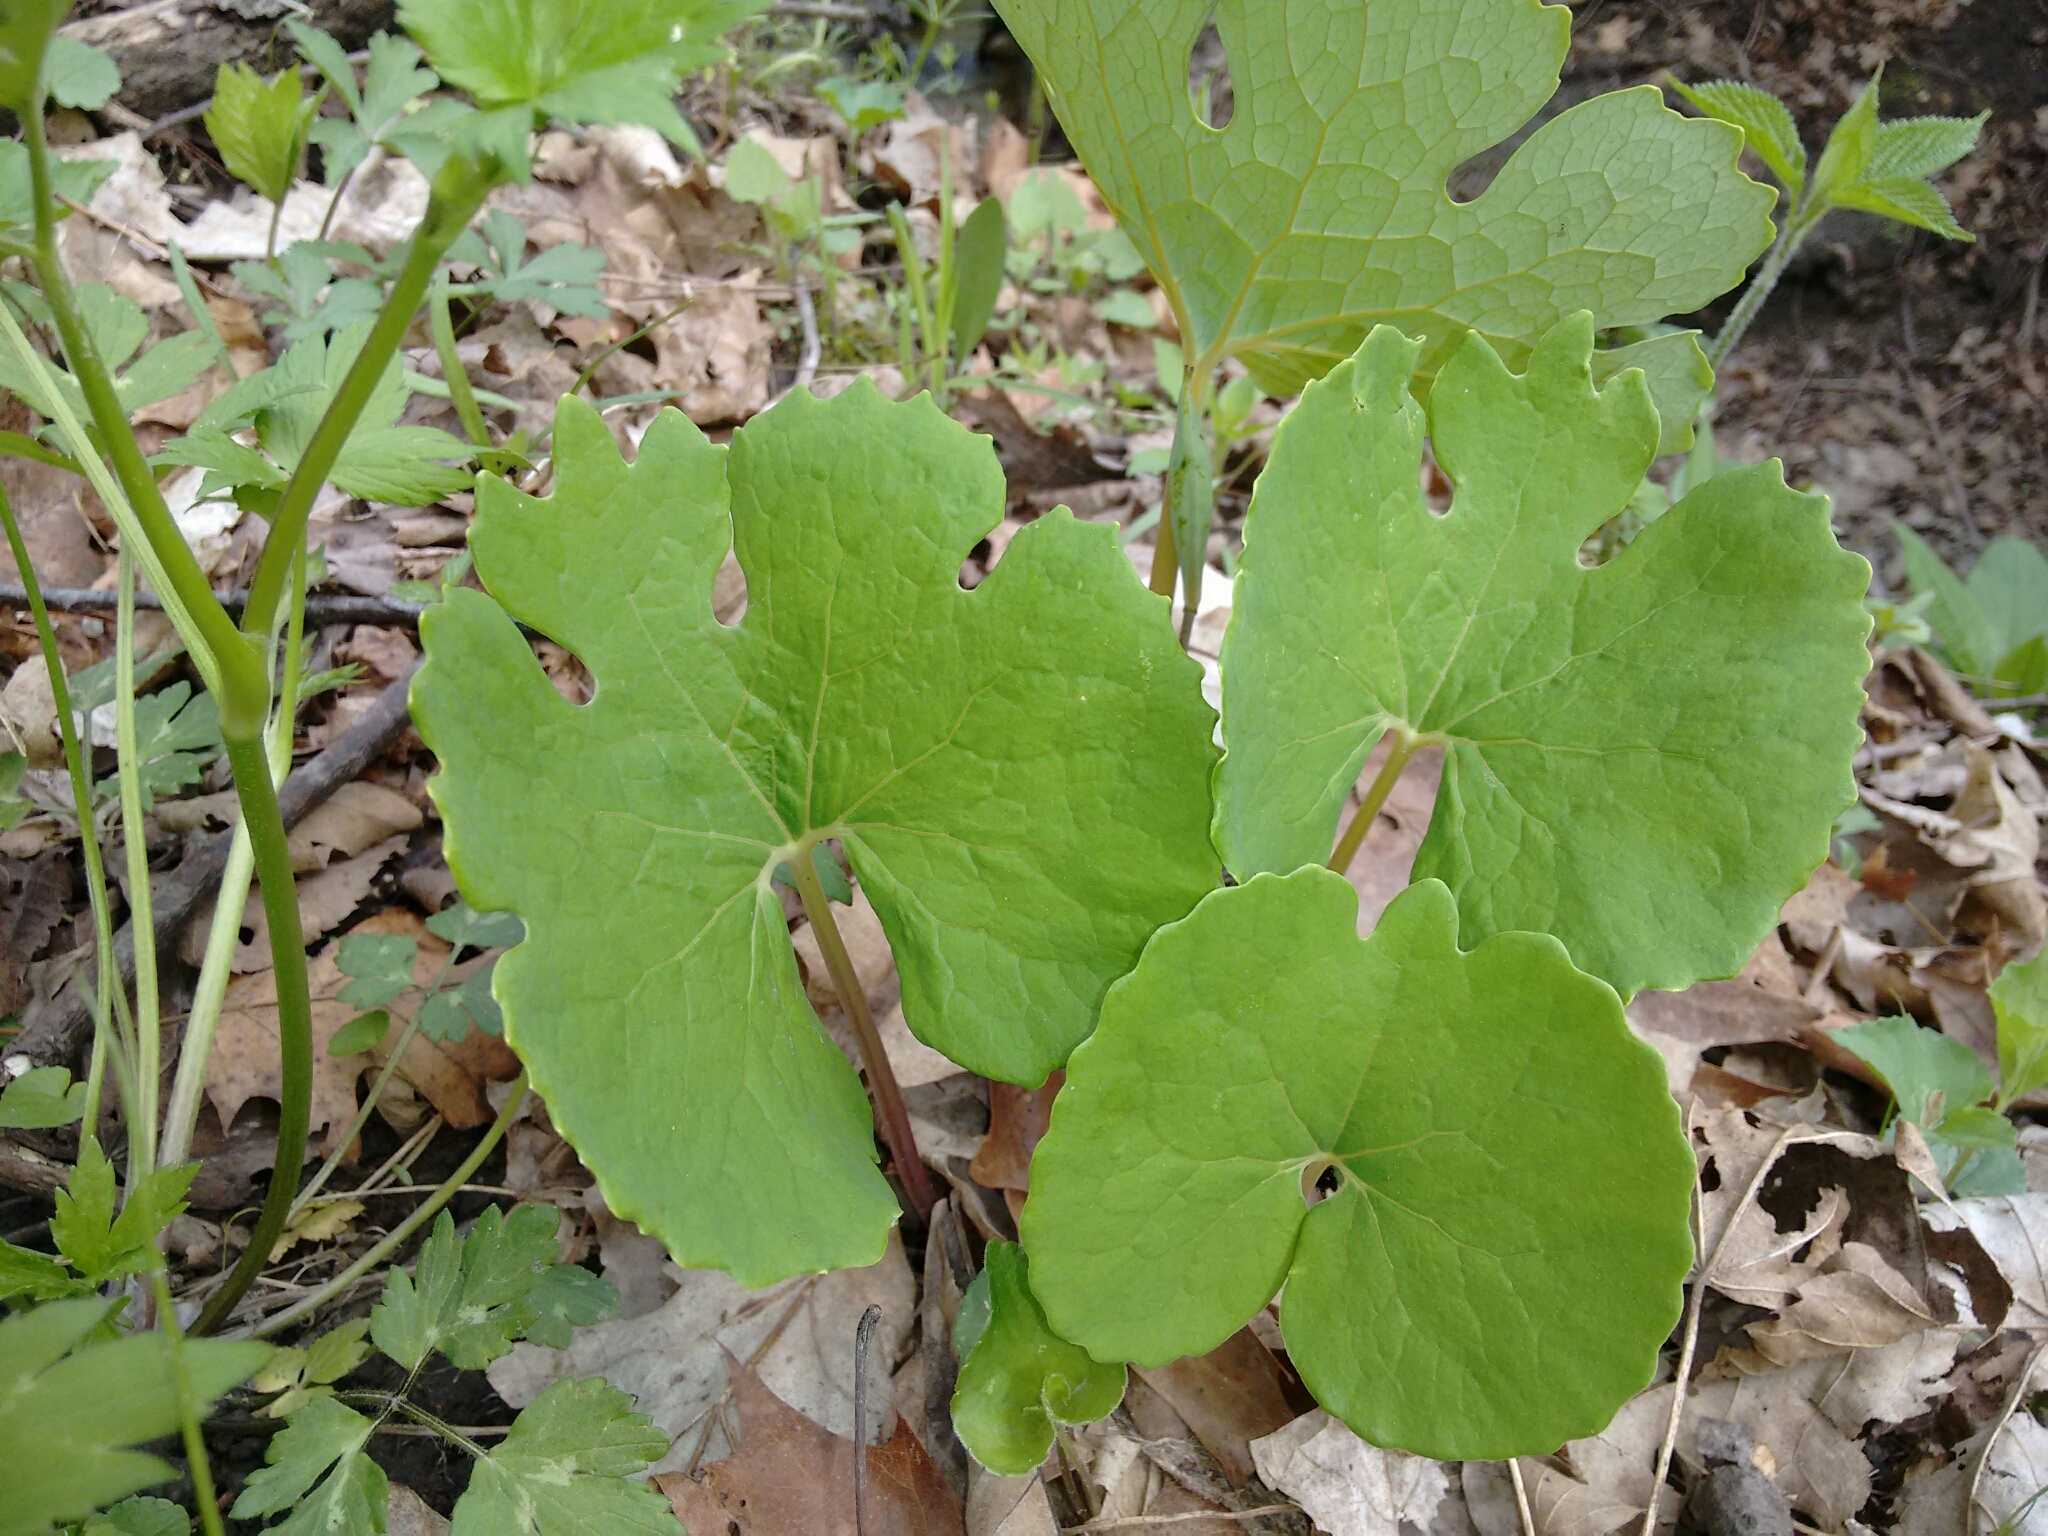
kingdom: Plantae
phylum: Tracheophyta
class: Magnoliopsida
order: Ranunculales
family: Papaveraceae
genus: Sanguinaria
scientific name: Sanguinaria canadensis
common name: Bloodroot
